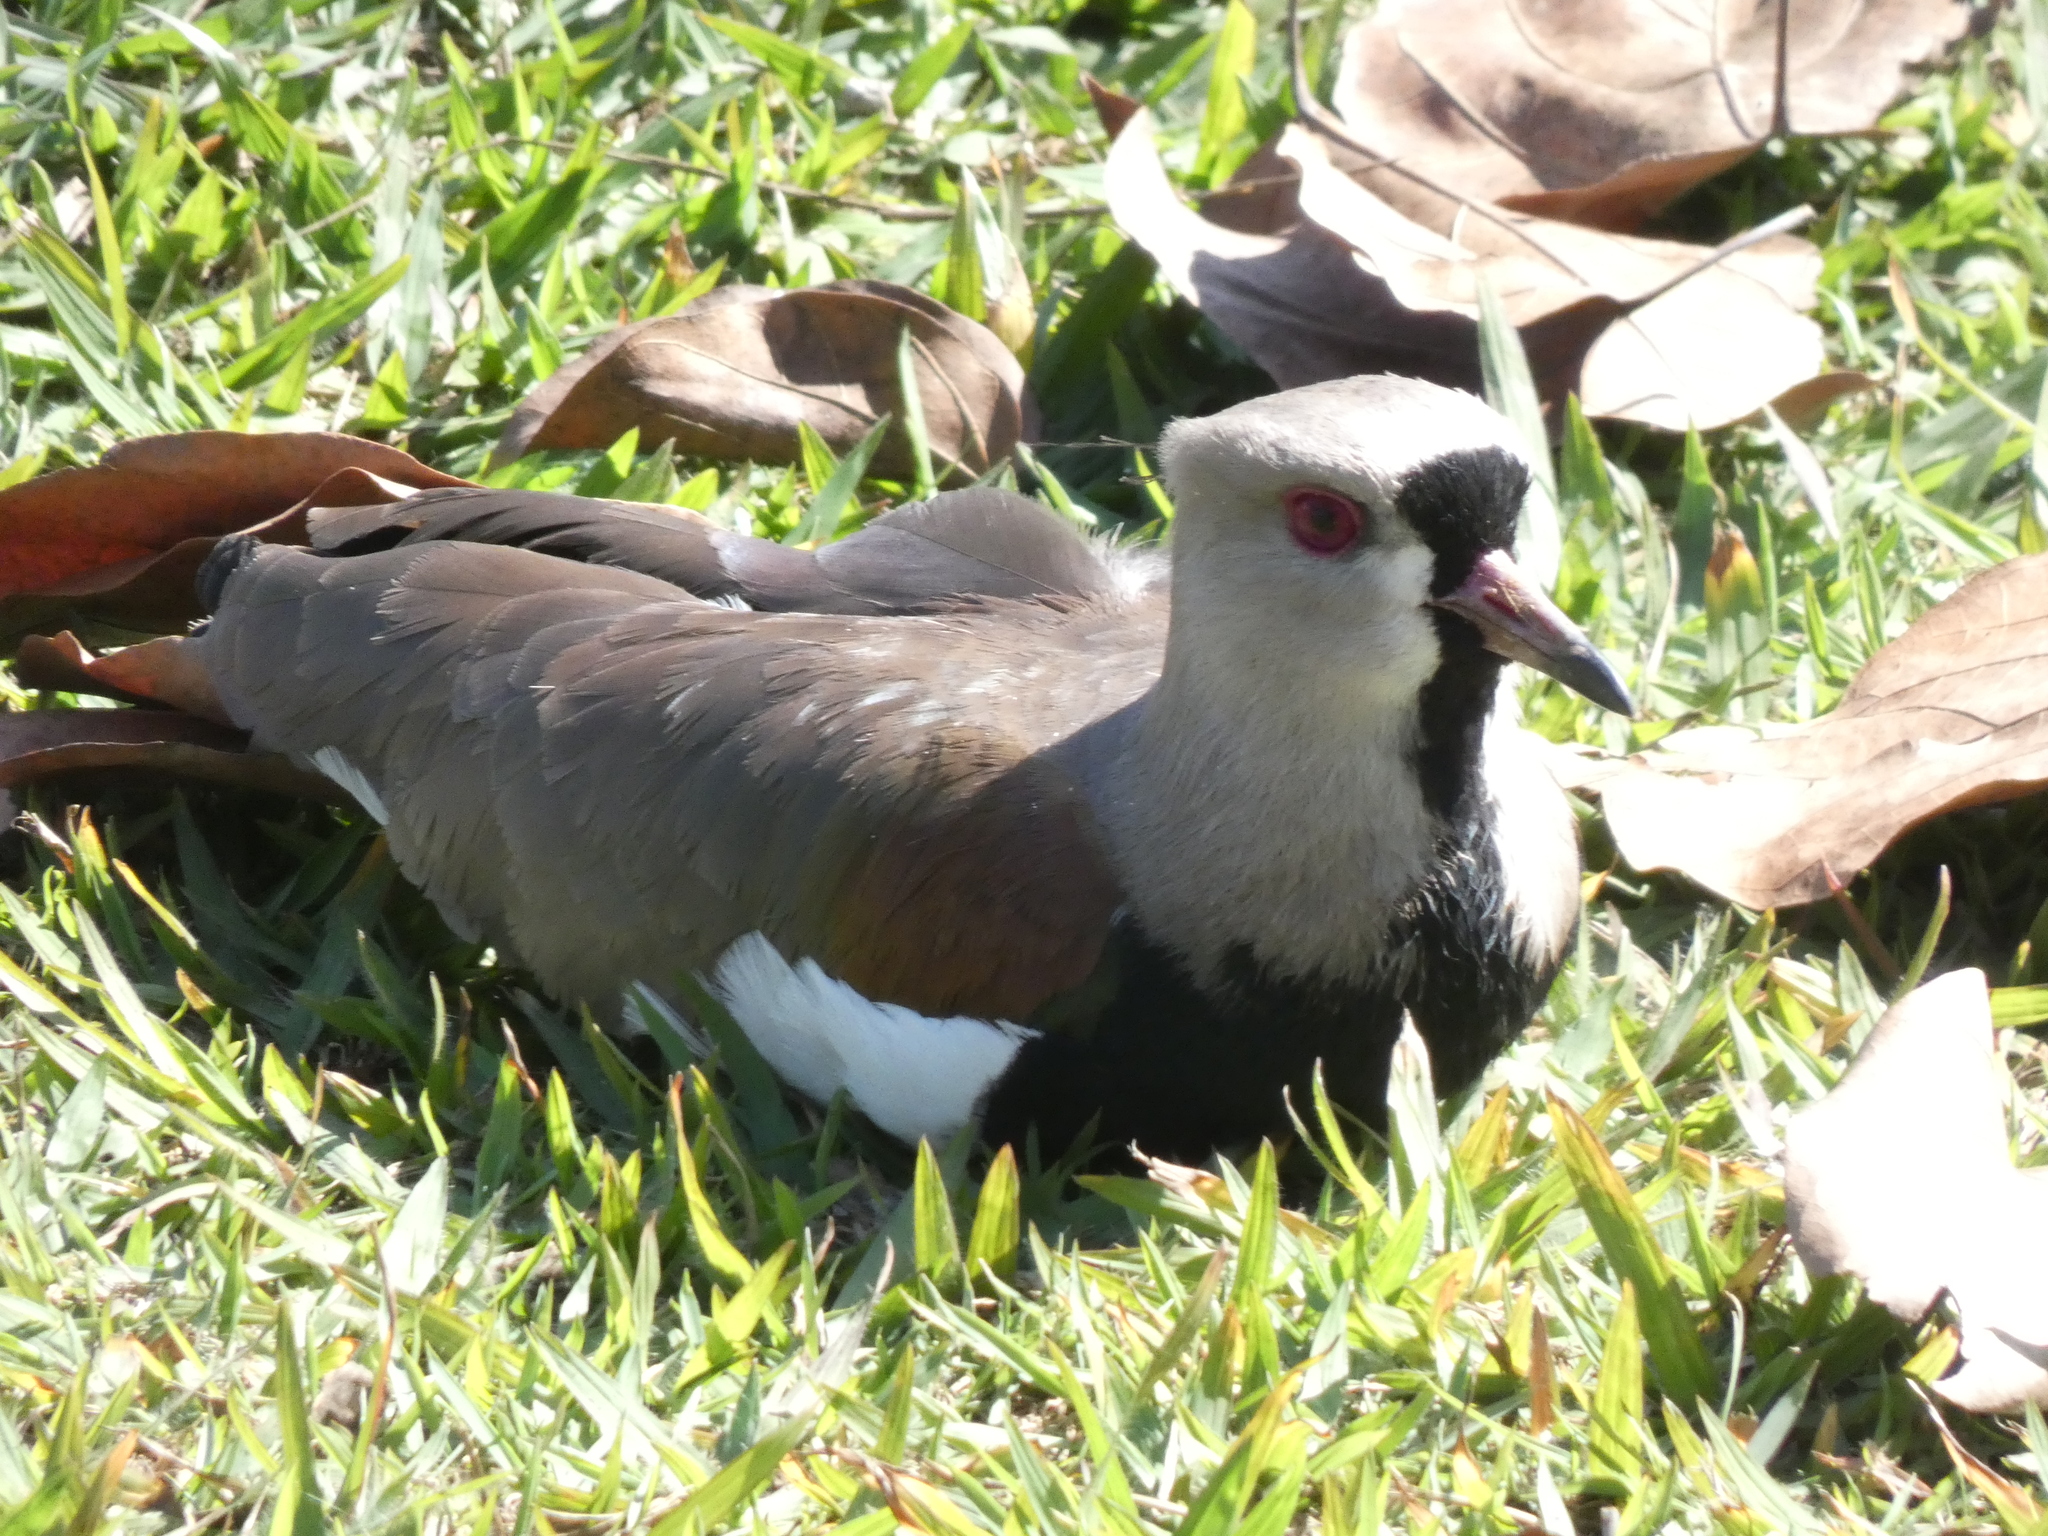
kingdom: Animalia
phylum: Chordata
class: Aves
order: Charadriiformes
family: Charadriidae
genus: Vanellus
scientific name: Vanellus chilensis
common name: Southern lapwing
